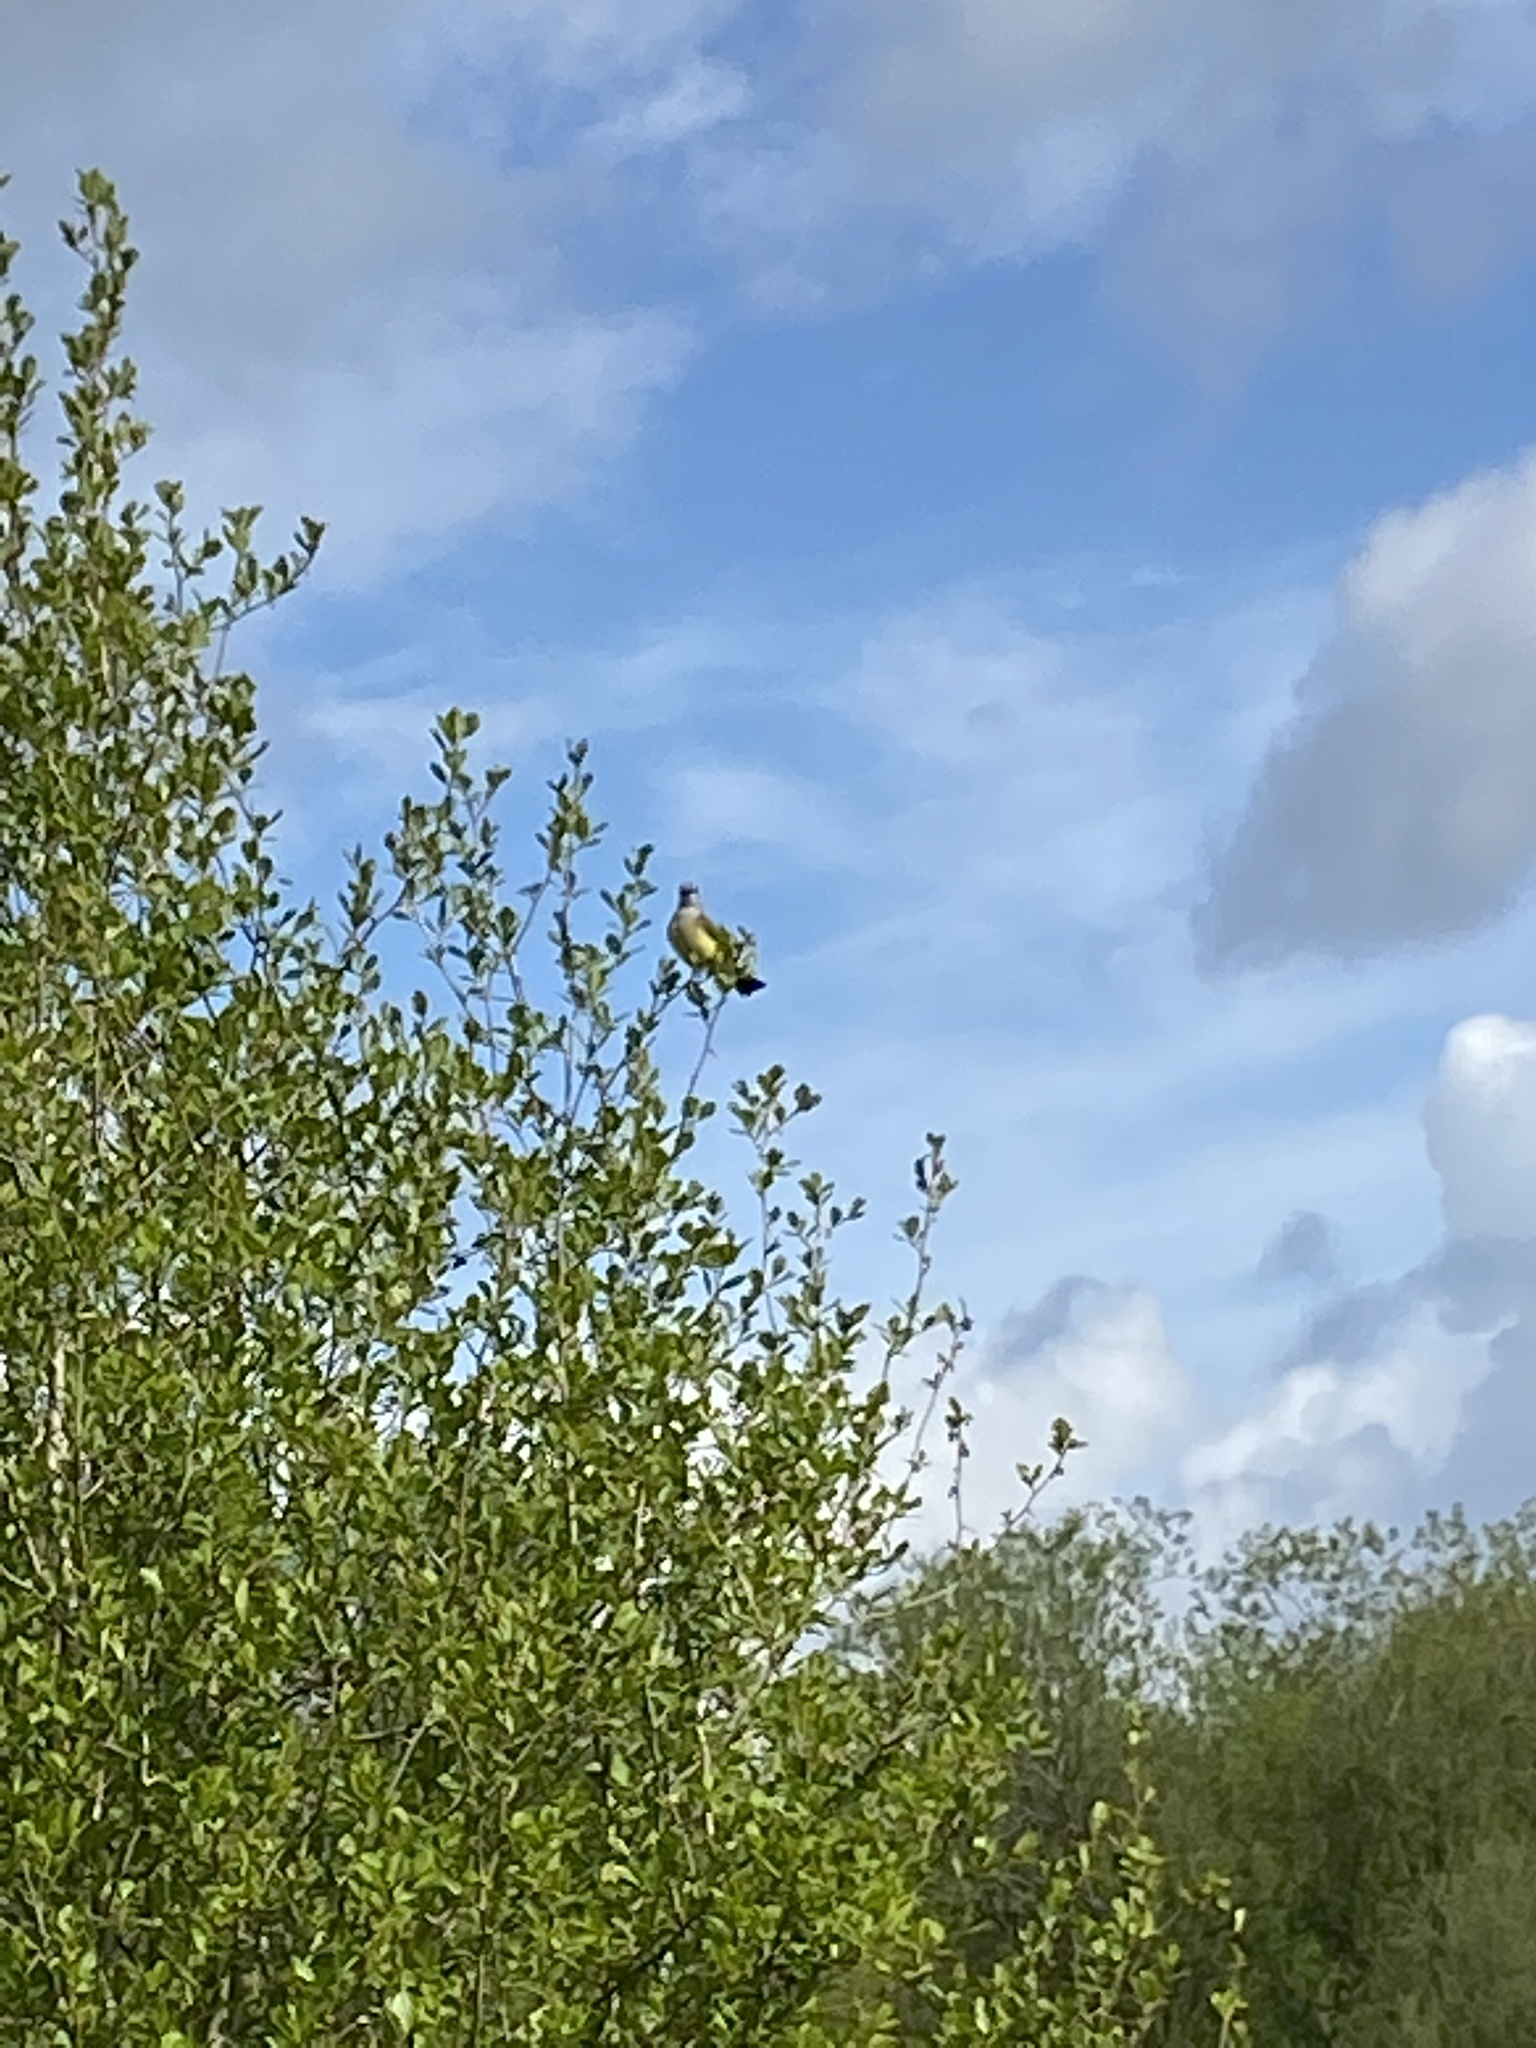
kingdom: Animalia
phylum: Chordata
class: Aves
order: Passeriformes
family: Bombycillidae
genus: Bombycilla
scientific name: Bombycilla cedrorum
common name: Cedar waxwing
